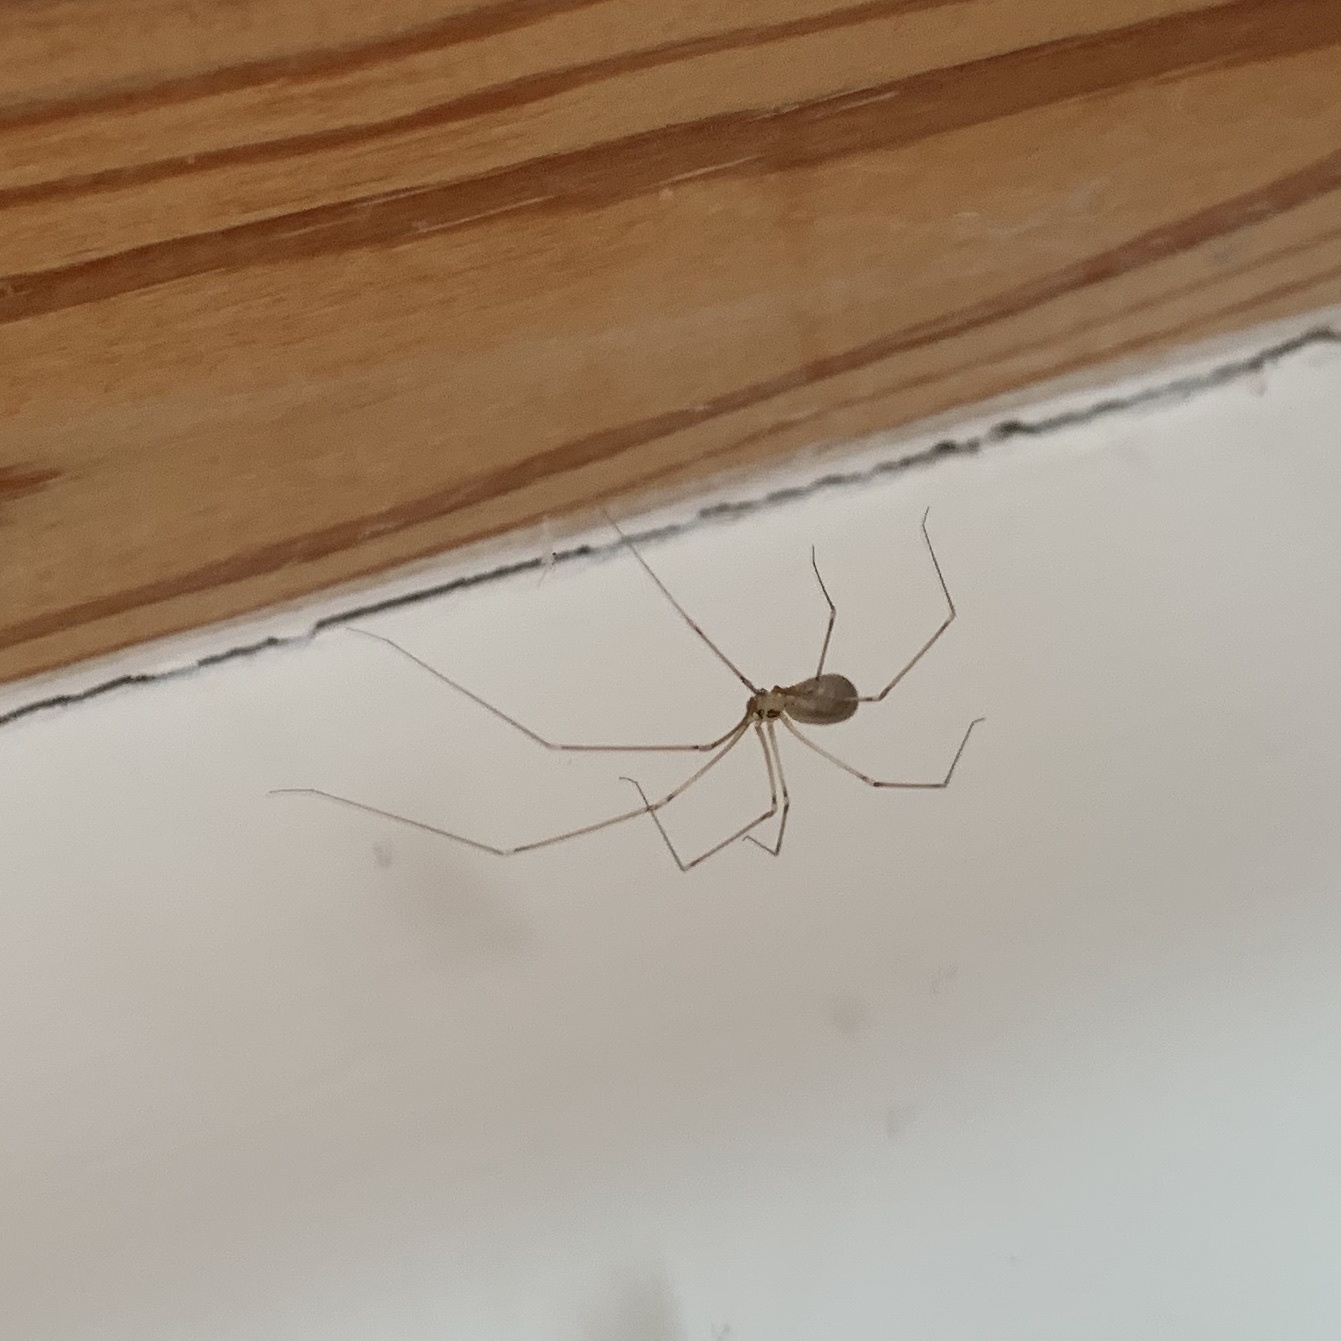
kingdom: Animalia
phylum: Arthropoda
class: Arachnida
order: Araneae
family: Pholcidae
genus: Pholcus
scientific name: Pholcus phalangioides
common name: Longbodied cellar spider
